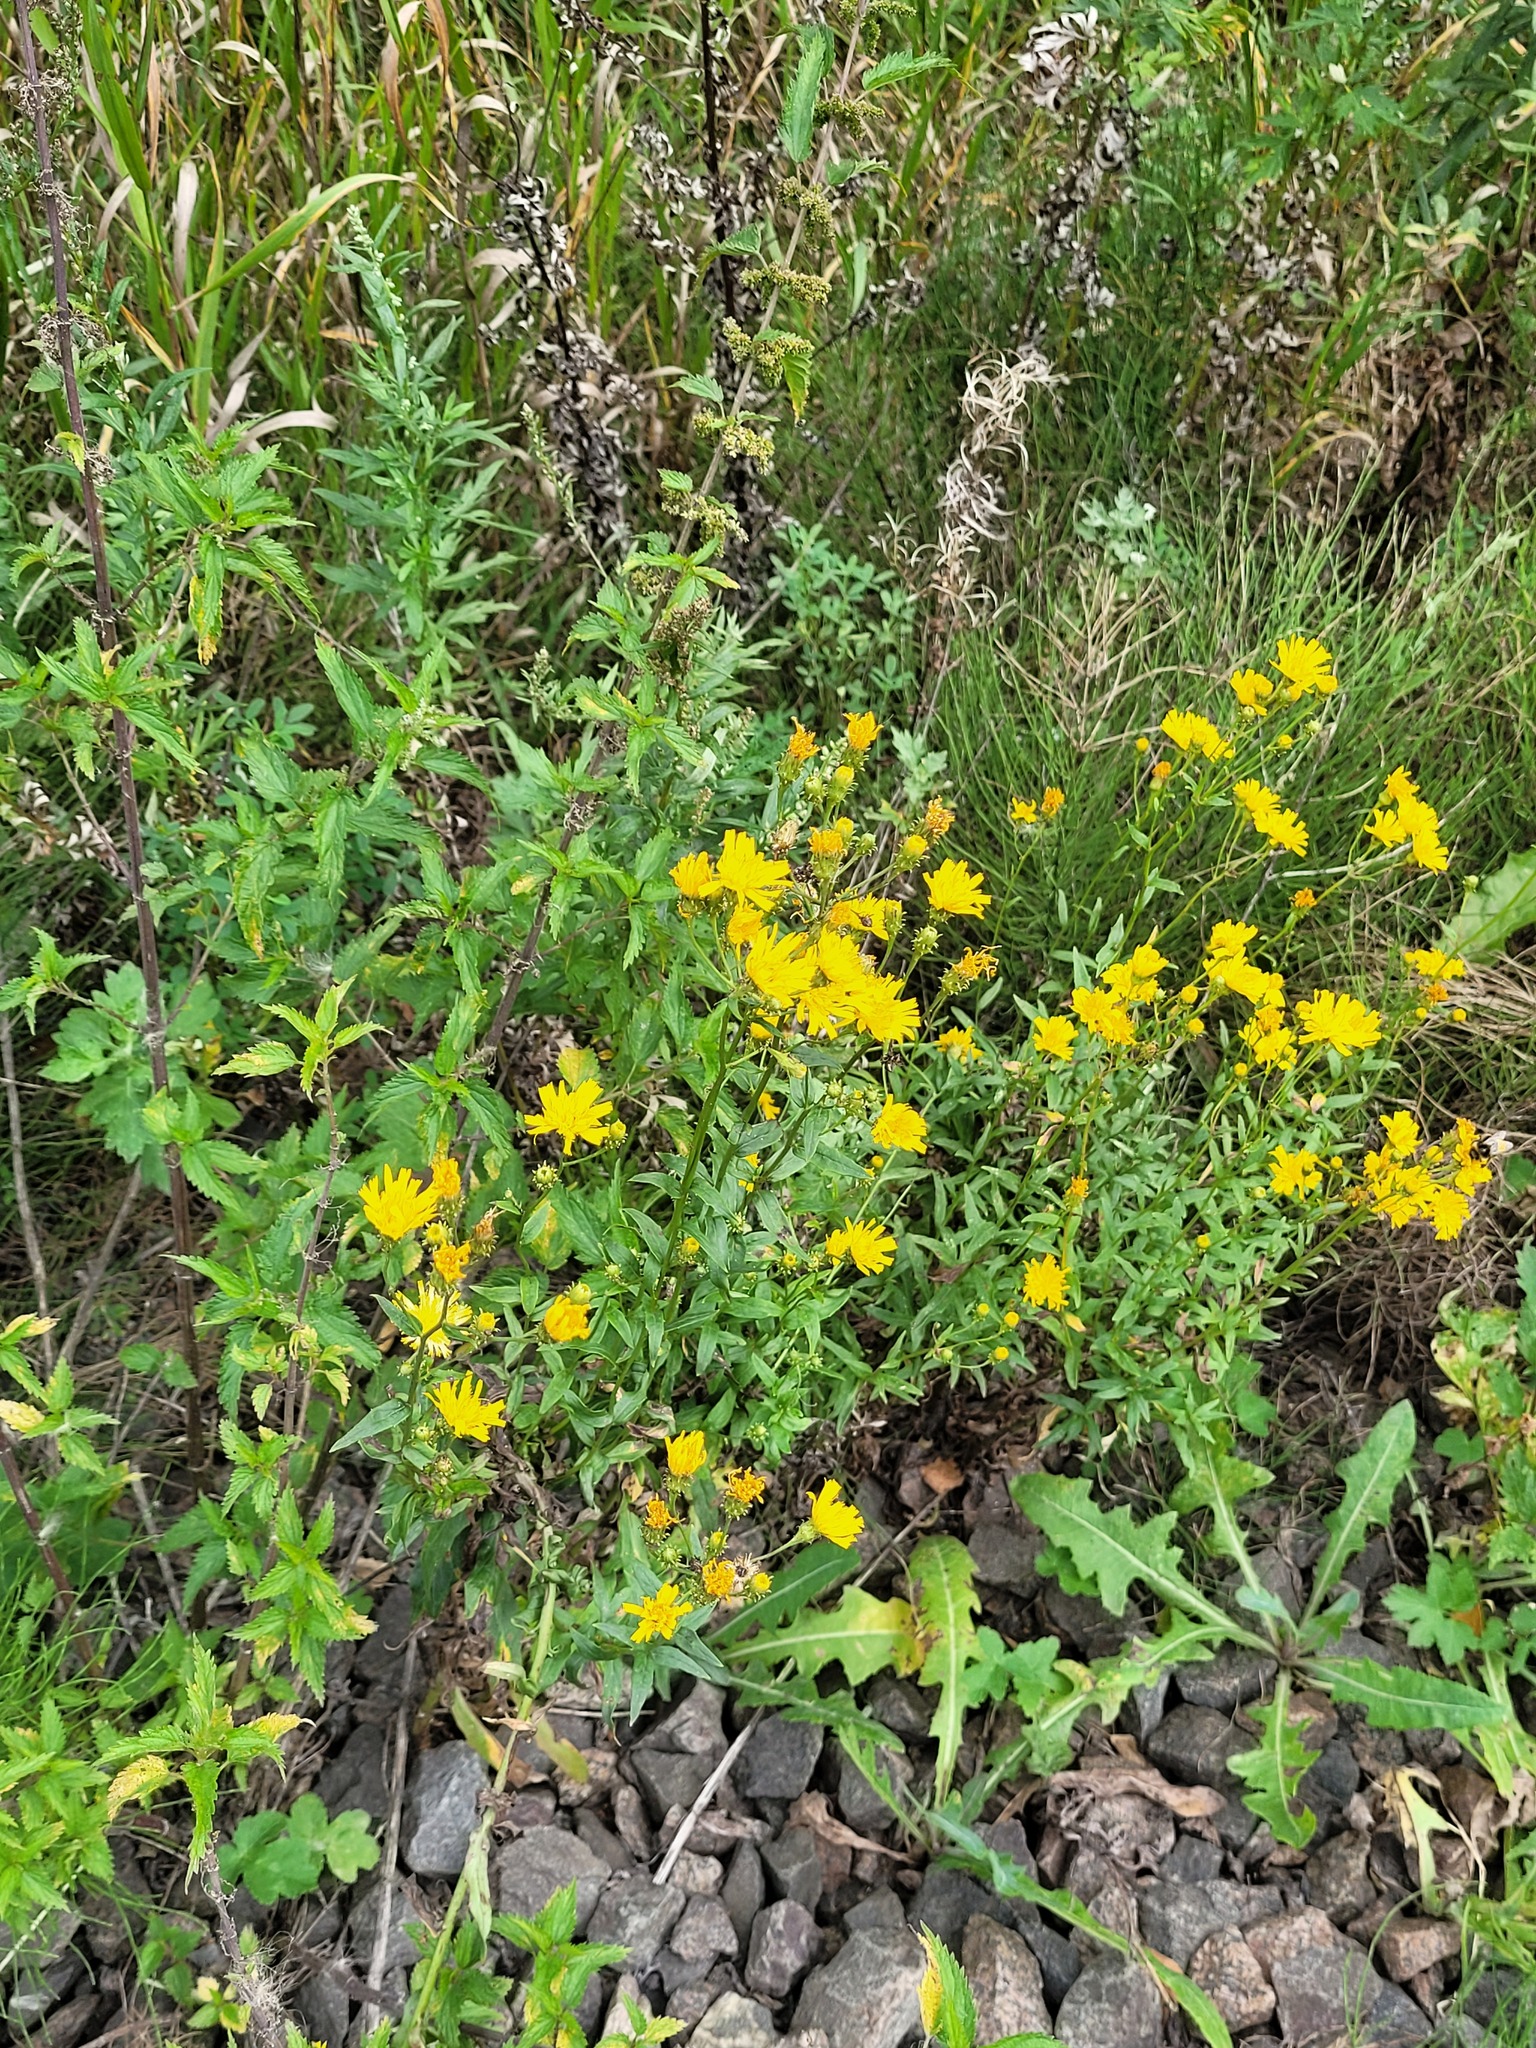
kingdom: Plantae
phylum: Tracheophyta
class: Magnoliopsida
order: Asterales
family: Asteraceae
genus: Hieracium
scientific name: Hieracium umbellatum
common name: Northern hawkweed
